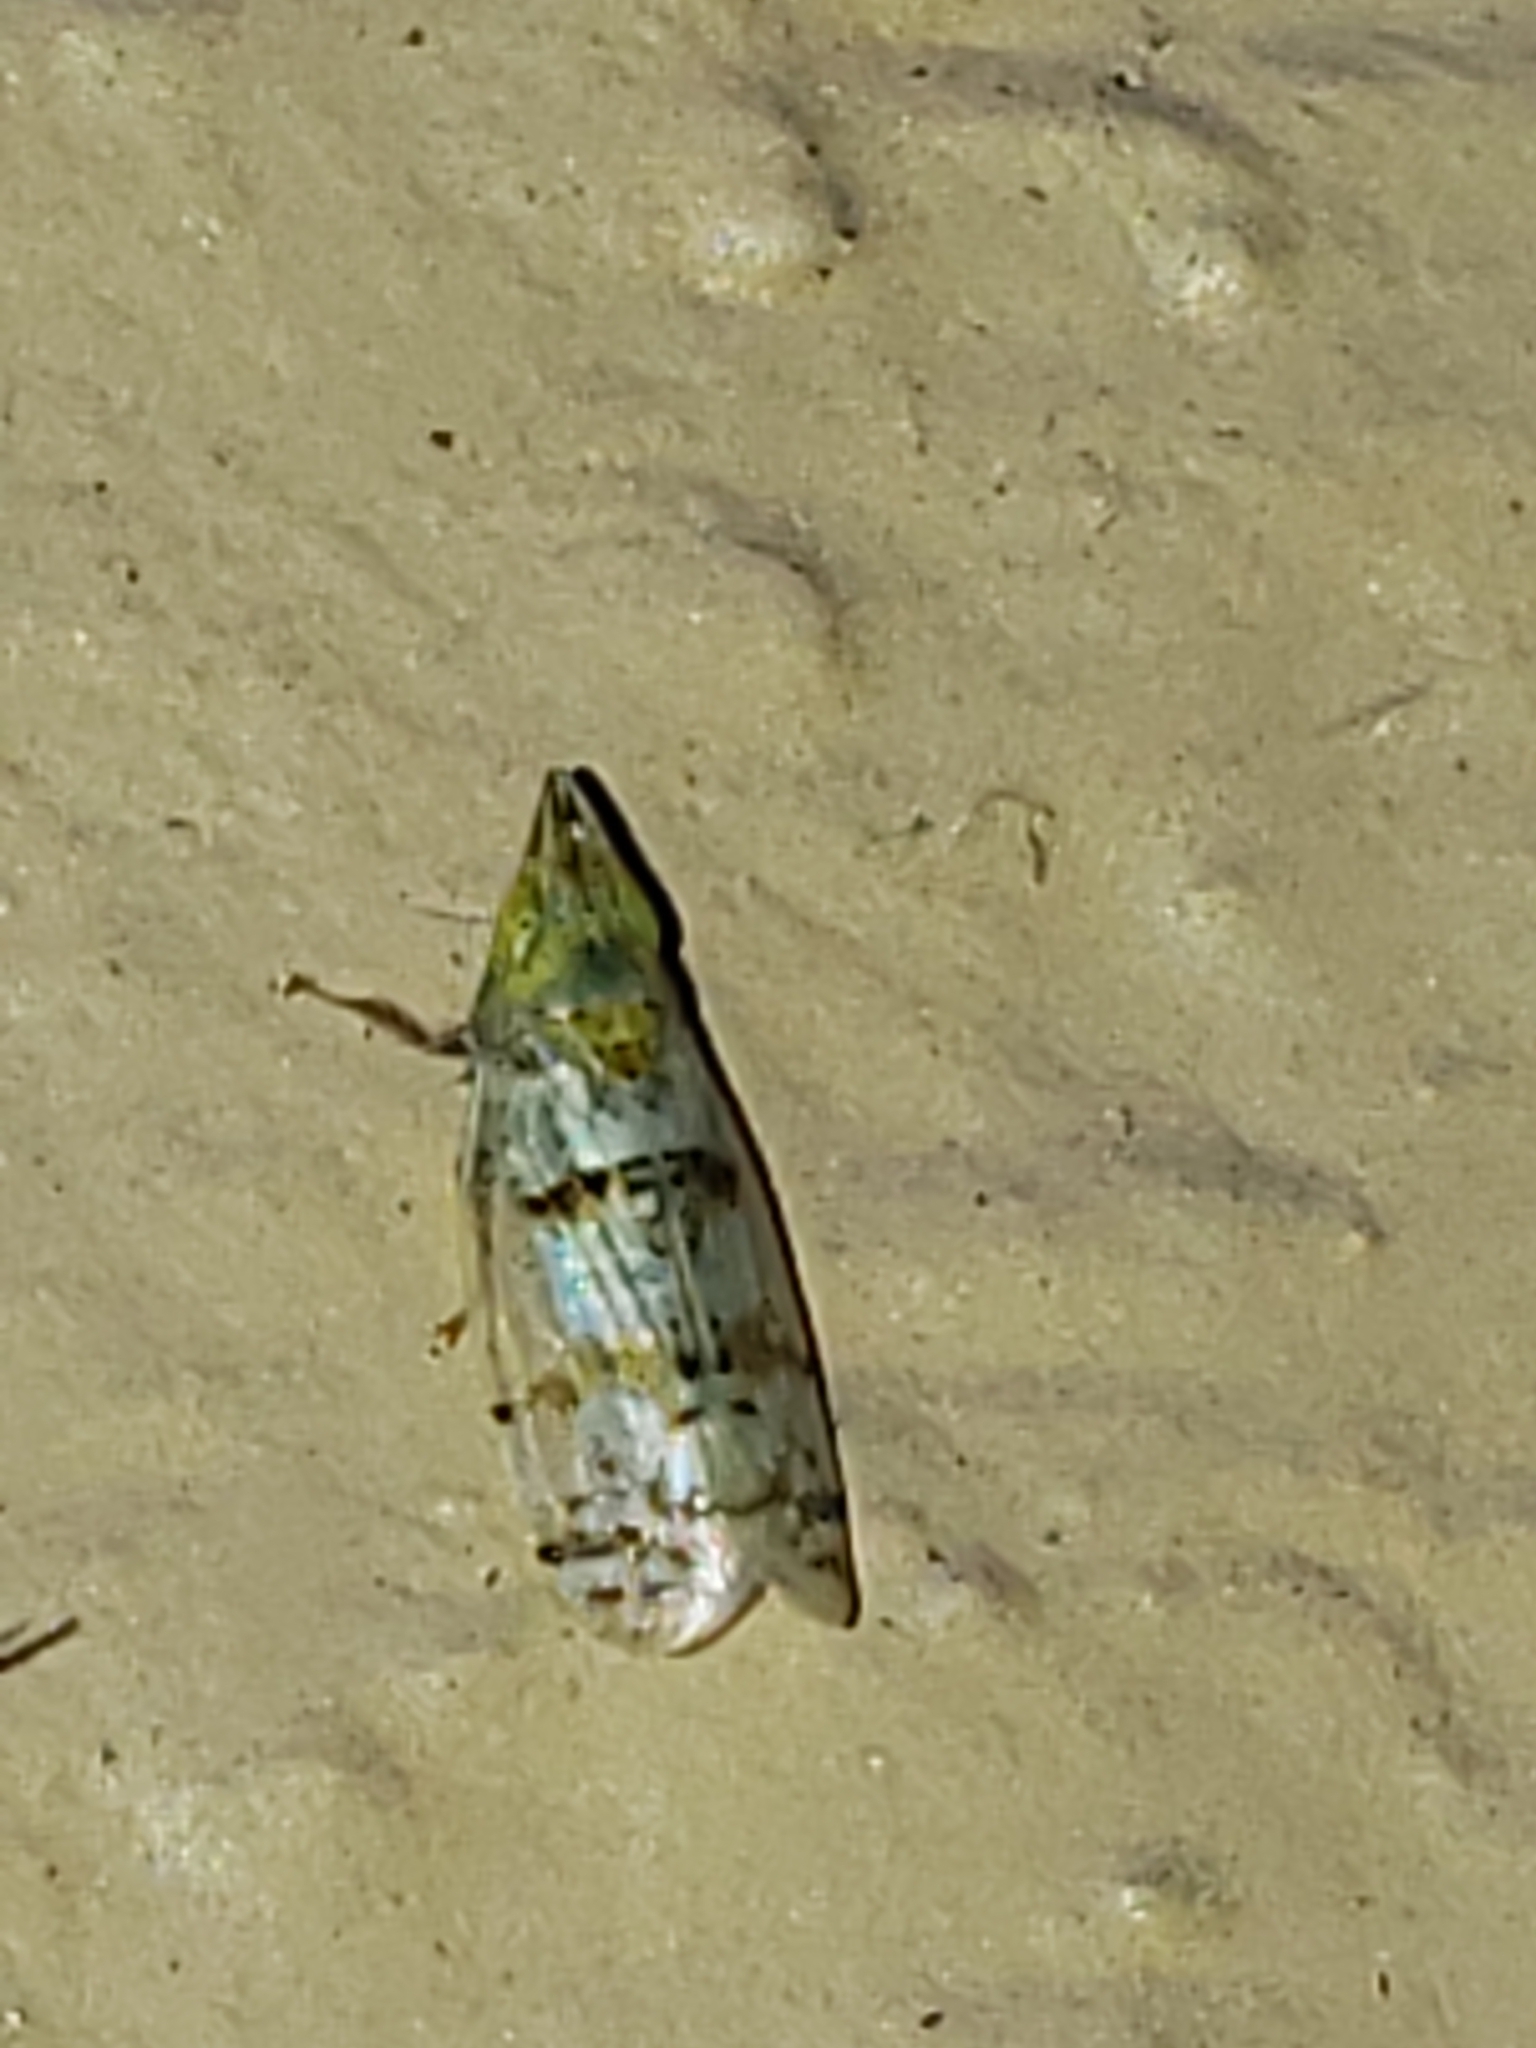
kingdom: Animalia
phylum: Arthropoda
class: Insecta
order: Hemiptera
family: Cicadellidae
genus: Japananus
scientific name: Japananus hyalinus
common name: The japanese maple leafhopper
